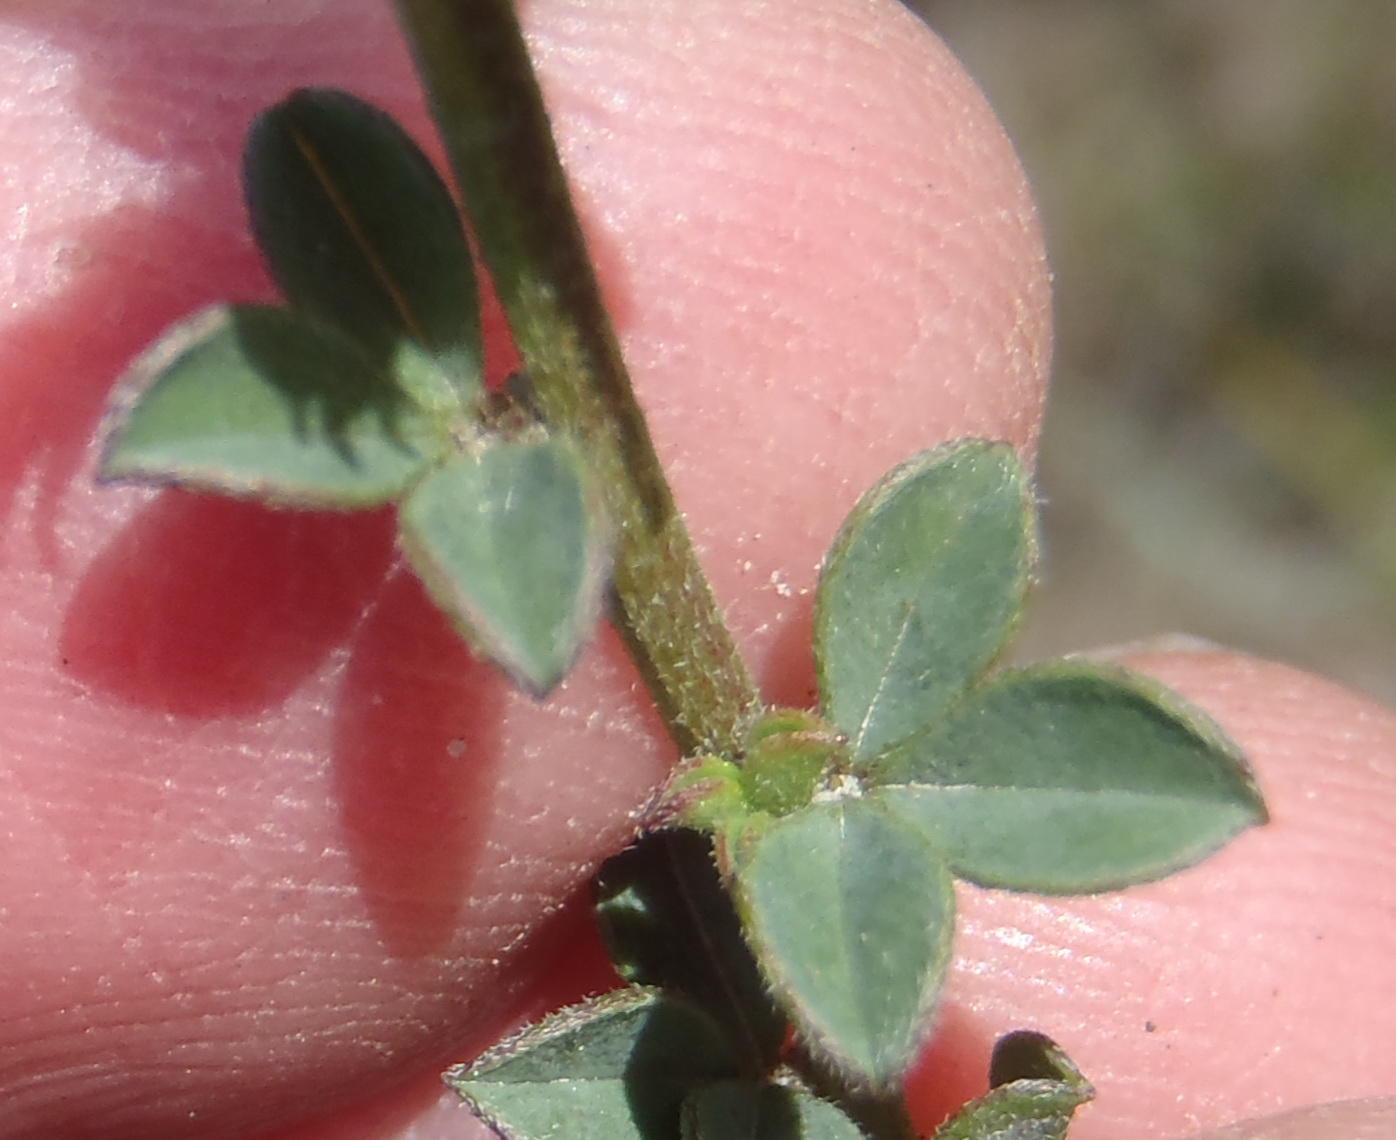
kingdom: Plantae
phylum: Tracheophyta
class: Magnoliopsida
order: Fabales
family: Fabaceae
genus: Indigofera
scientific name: Indigofera priorii
